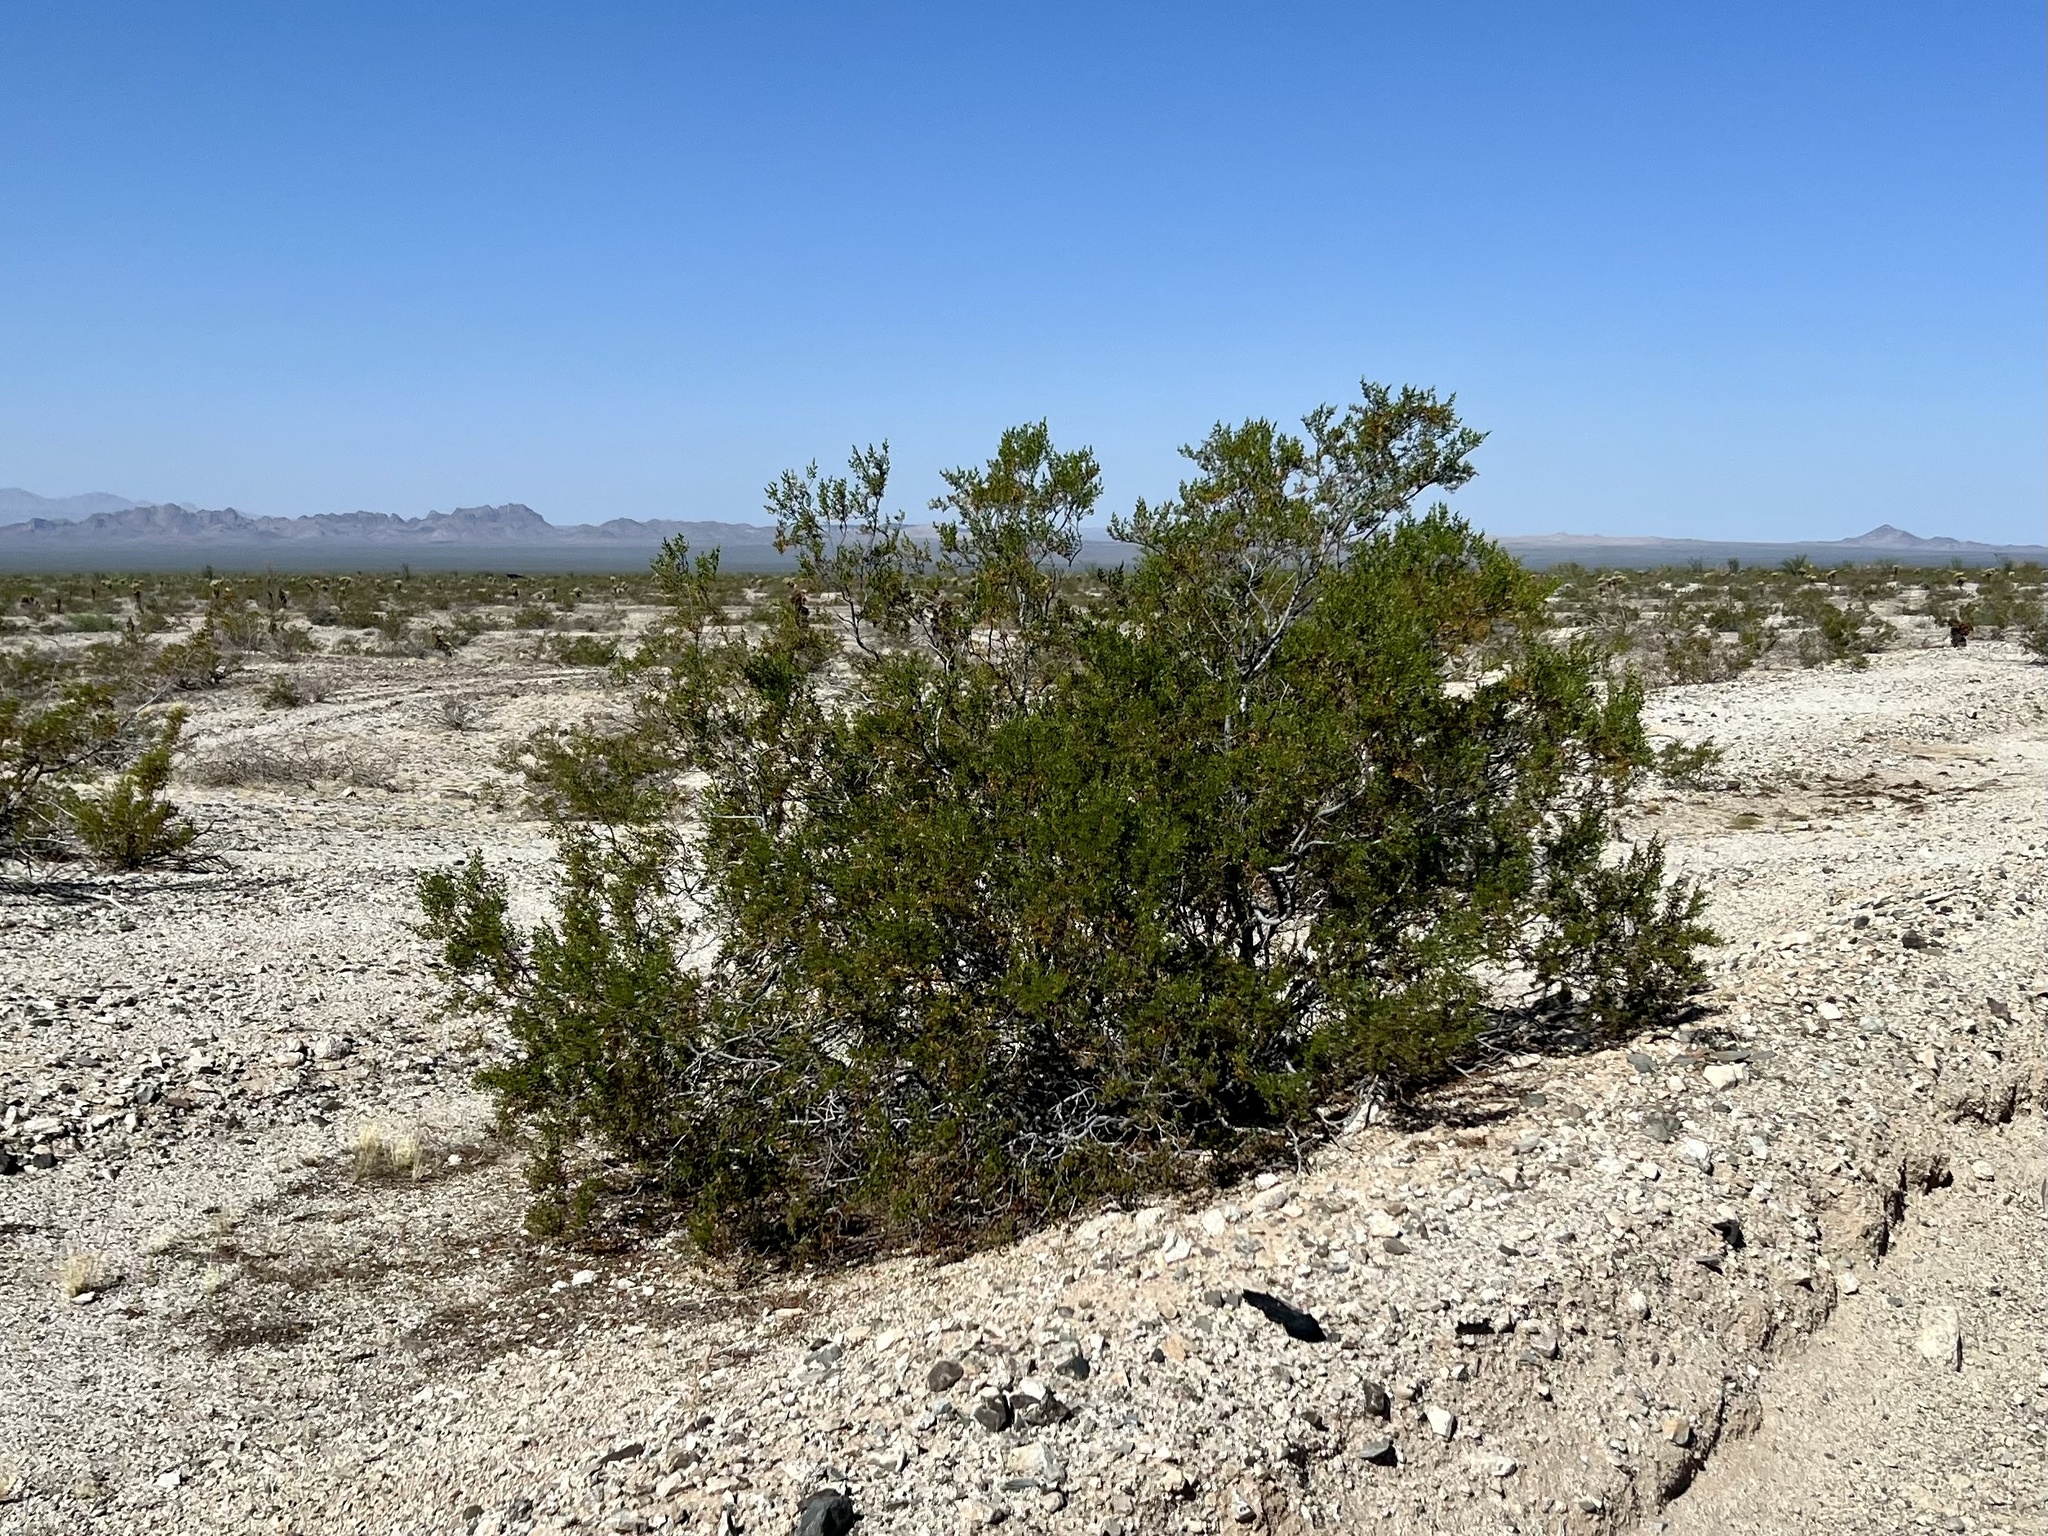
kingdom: Plantae
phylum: Tracheophyta
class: Magnoliopsida
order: Zygophyllales
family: Zygophyllaceae
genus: Larrea
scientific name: Larrea tridentata
